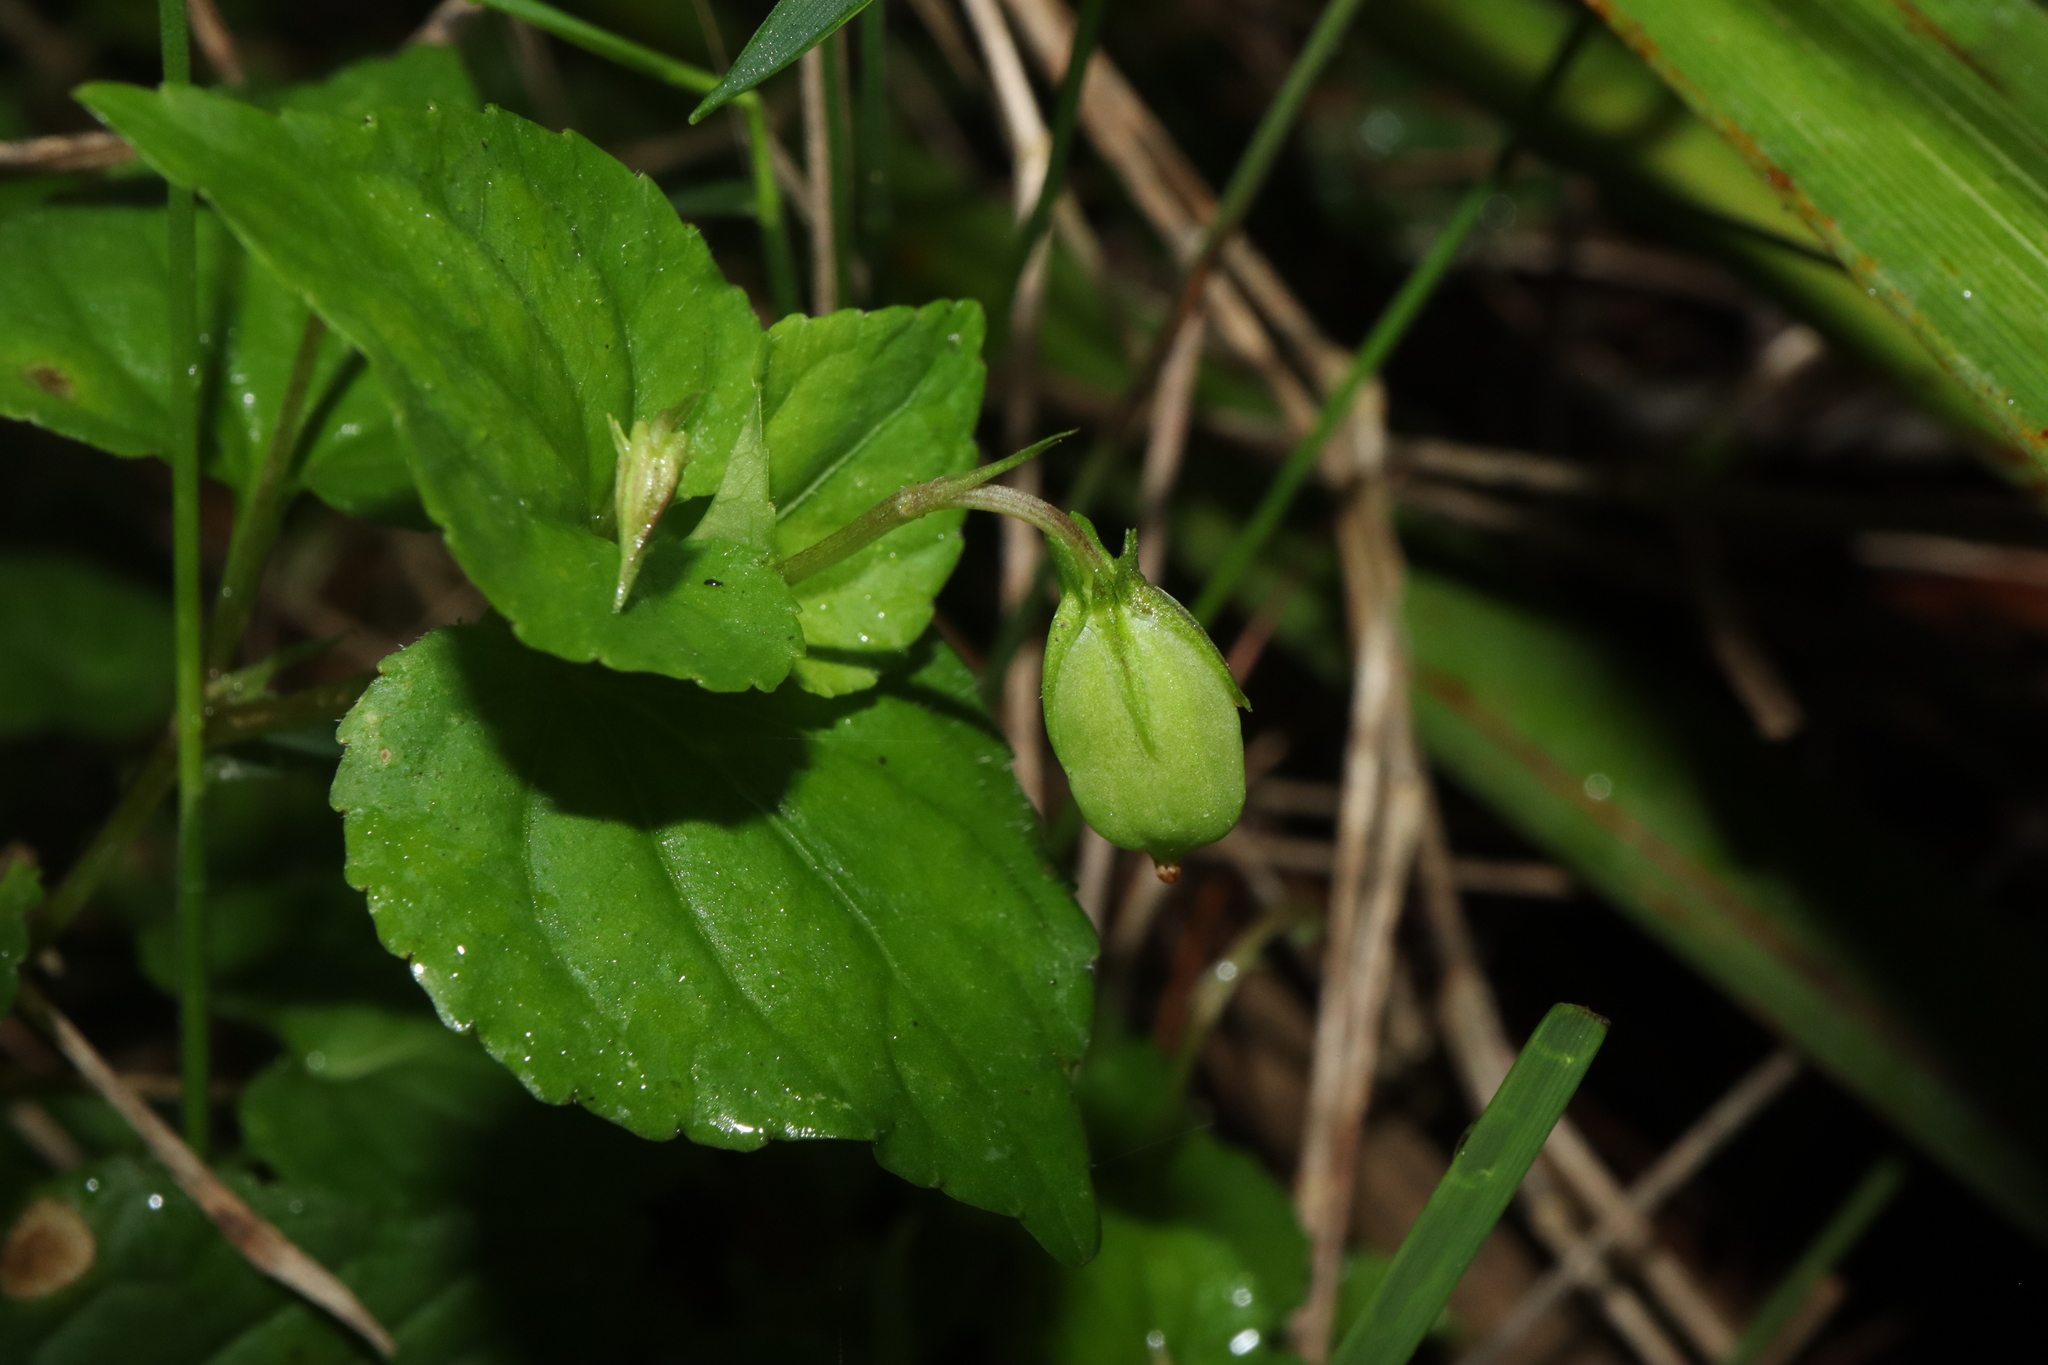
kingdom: Plantae
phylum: Tracheophyta
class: Magnoliopsida
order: Malpighiales
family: Violaceae
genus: Viola
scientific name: Viola odorata
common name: Sweet violet
